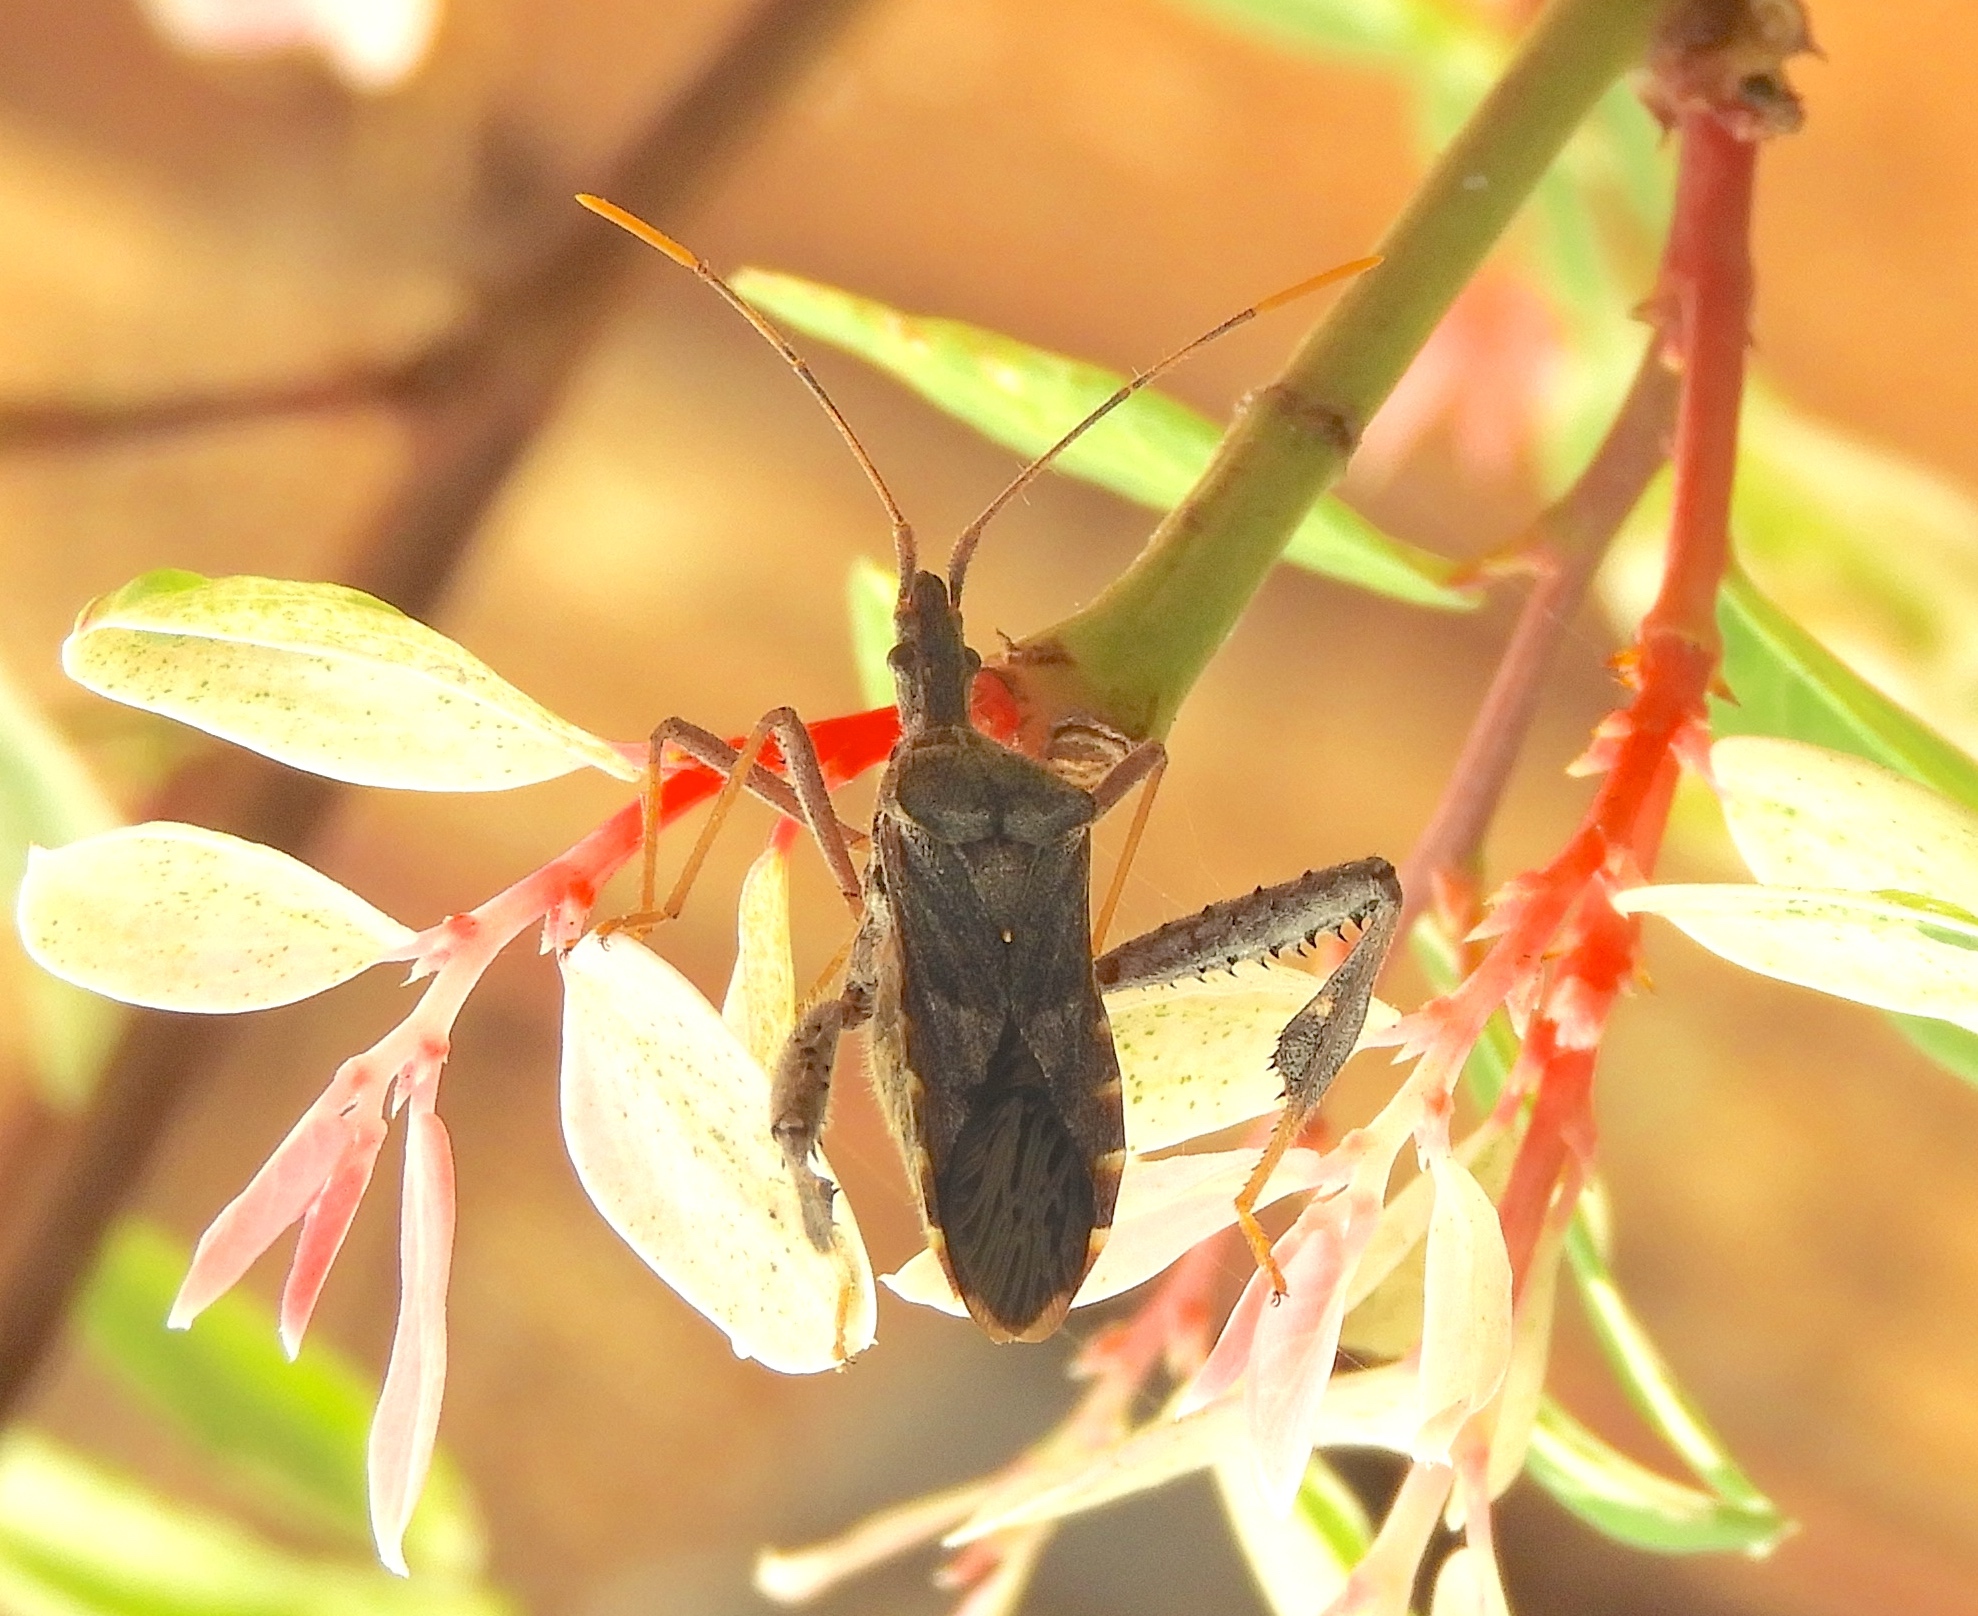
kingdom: Animalia
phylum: Arthropoda
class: Insecta
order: Hemiptera
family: Coreidae
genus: Narnia
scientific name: Narnia
